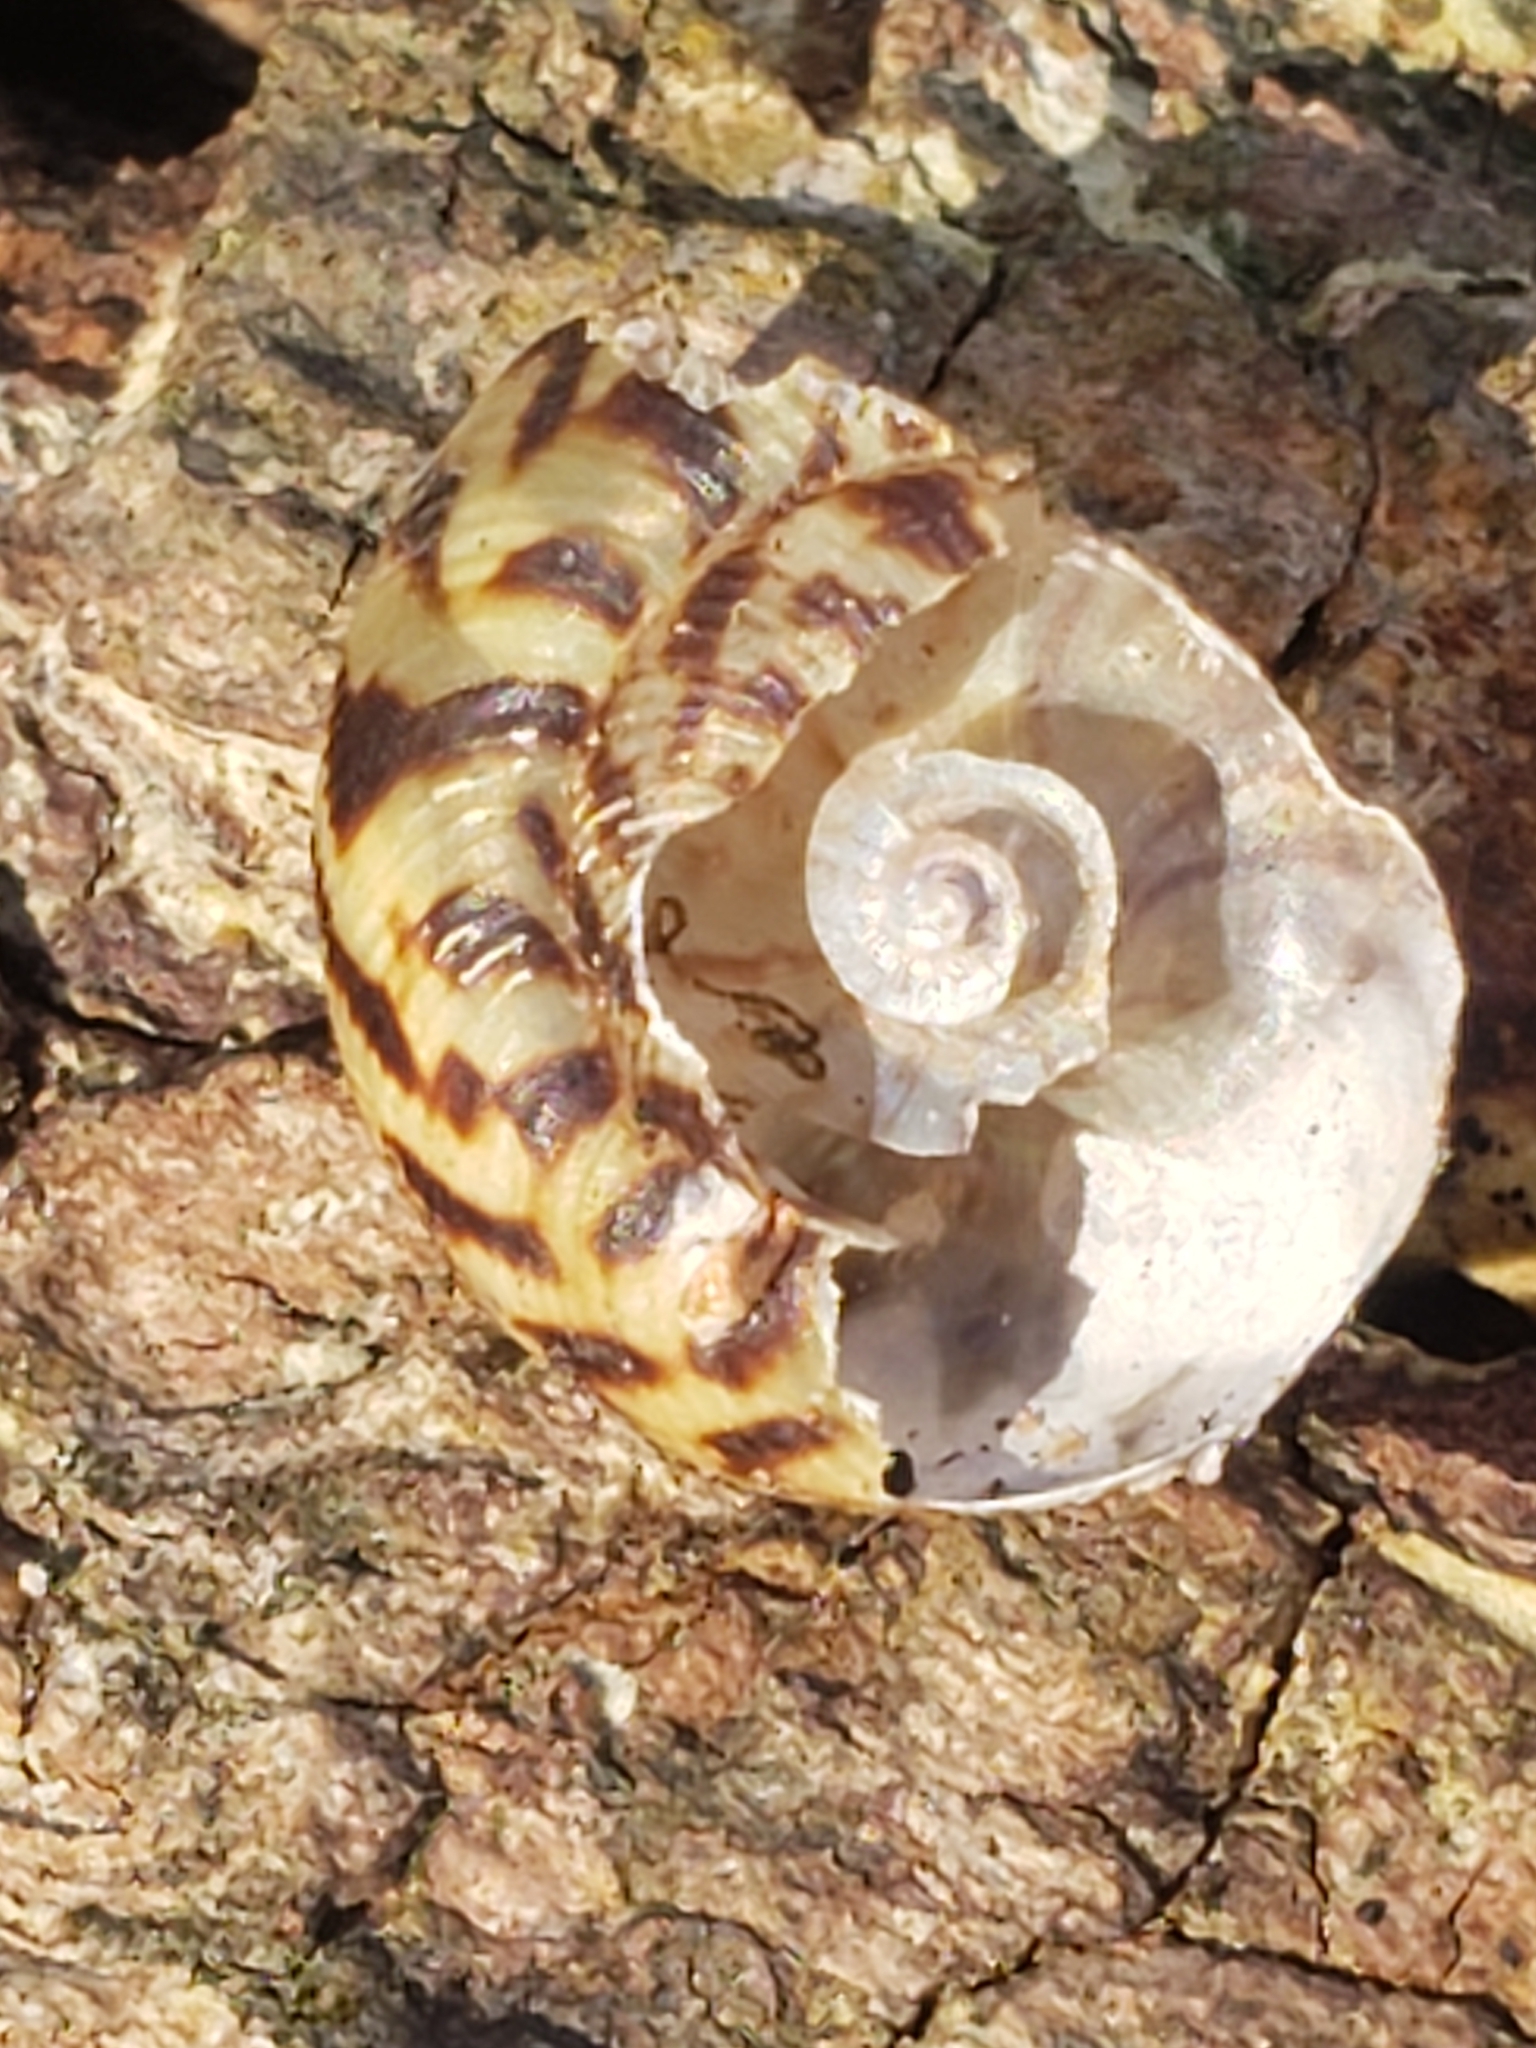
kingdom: Animalia
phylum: Mollusca
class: Gastropoda
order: Stylommatophora
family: Discidae
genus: Anguispira
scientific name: Anguispira alternata
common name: Flamed tigersnail
